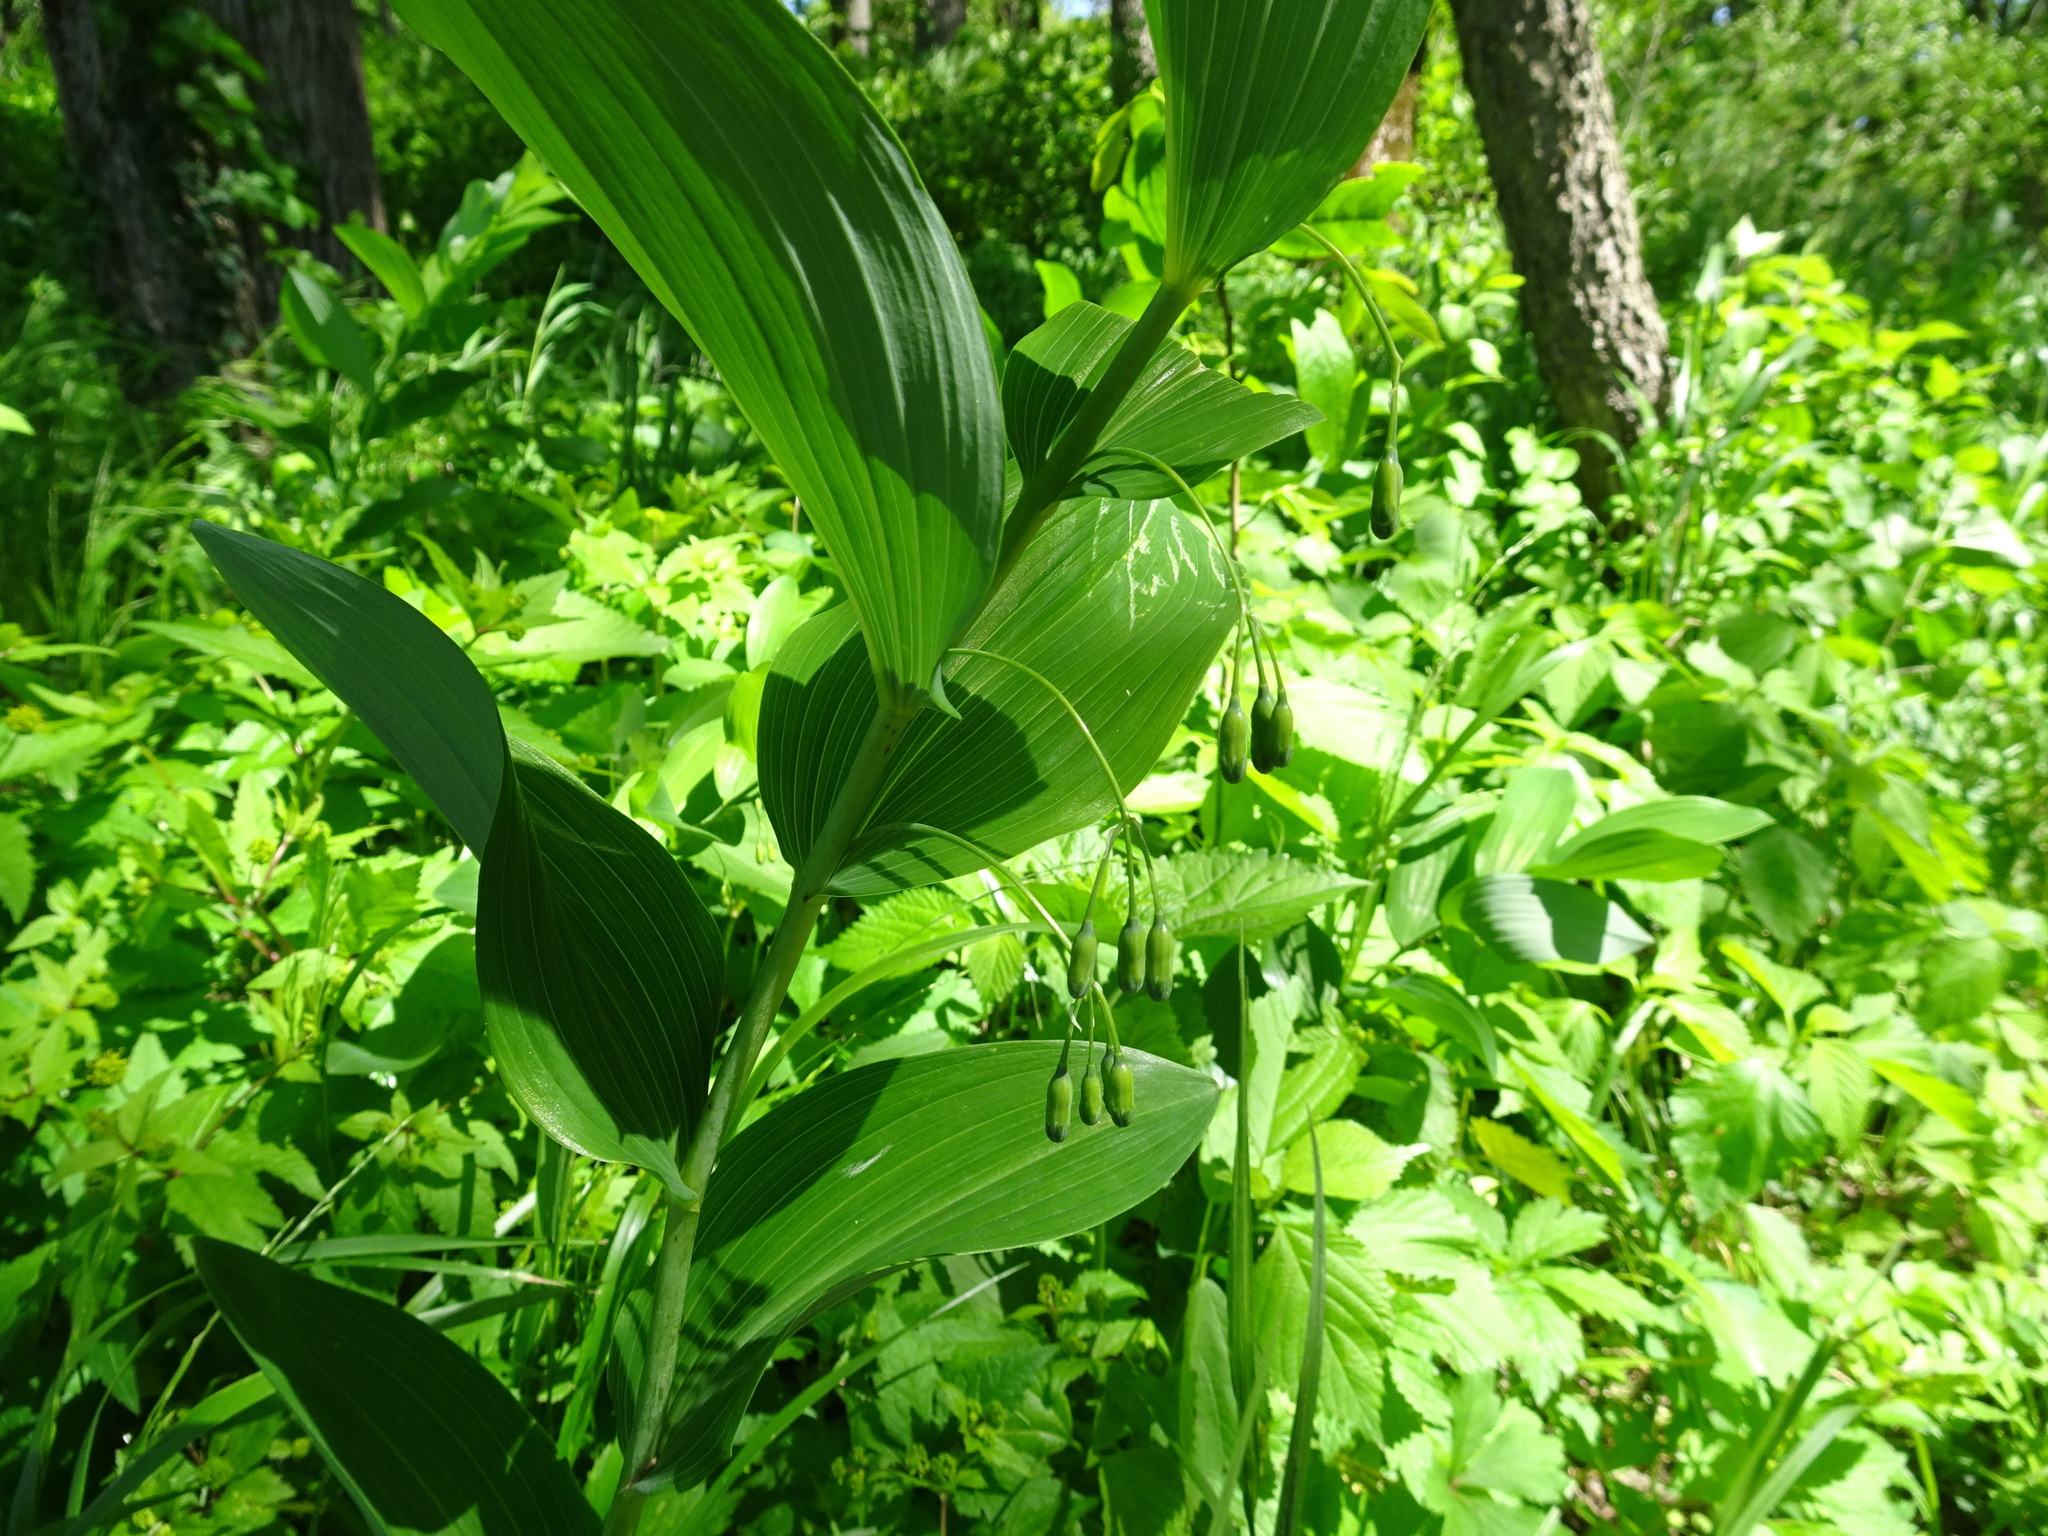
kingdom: Plantae
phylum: Tracheophyta
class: Liliopsida
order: Asparagales
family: Asparagaceae
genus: Polygonatum
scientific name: Polygonatum biflorum
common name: American solomon's-seal
